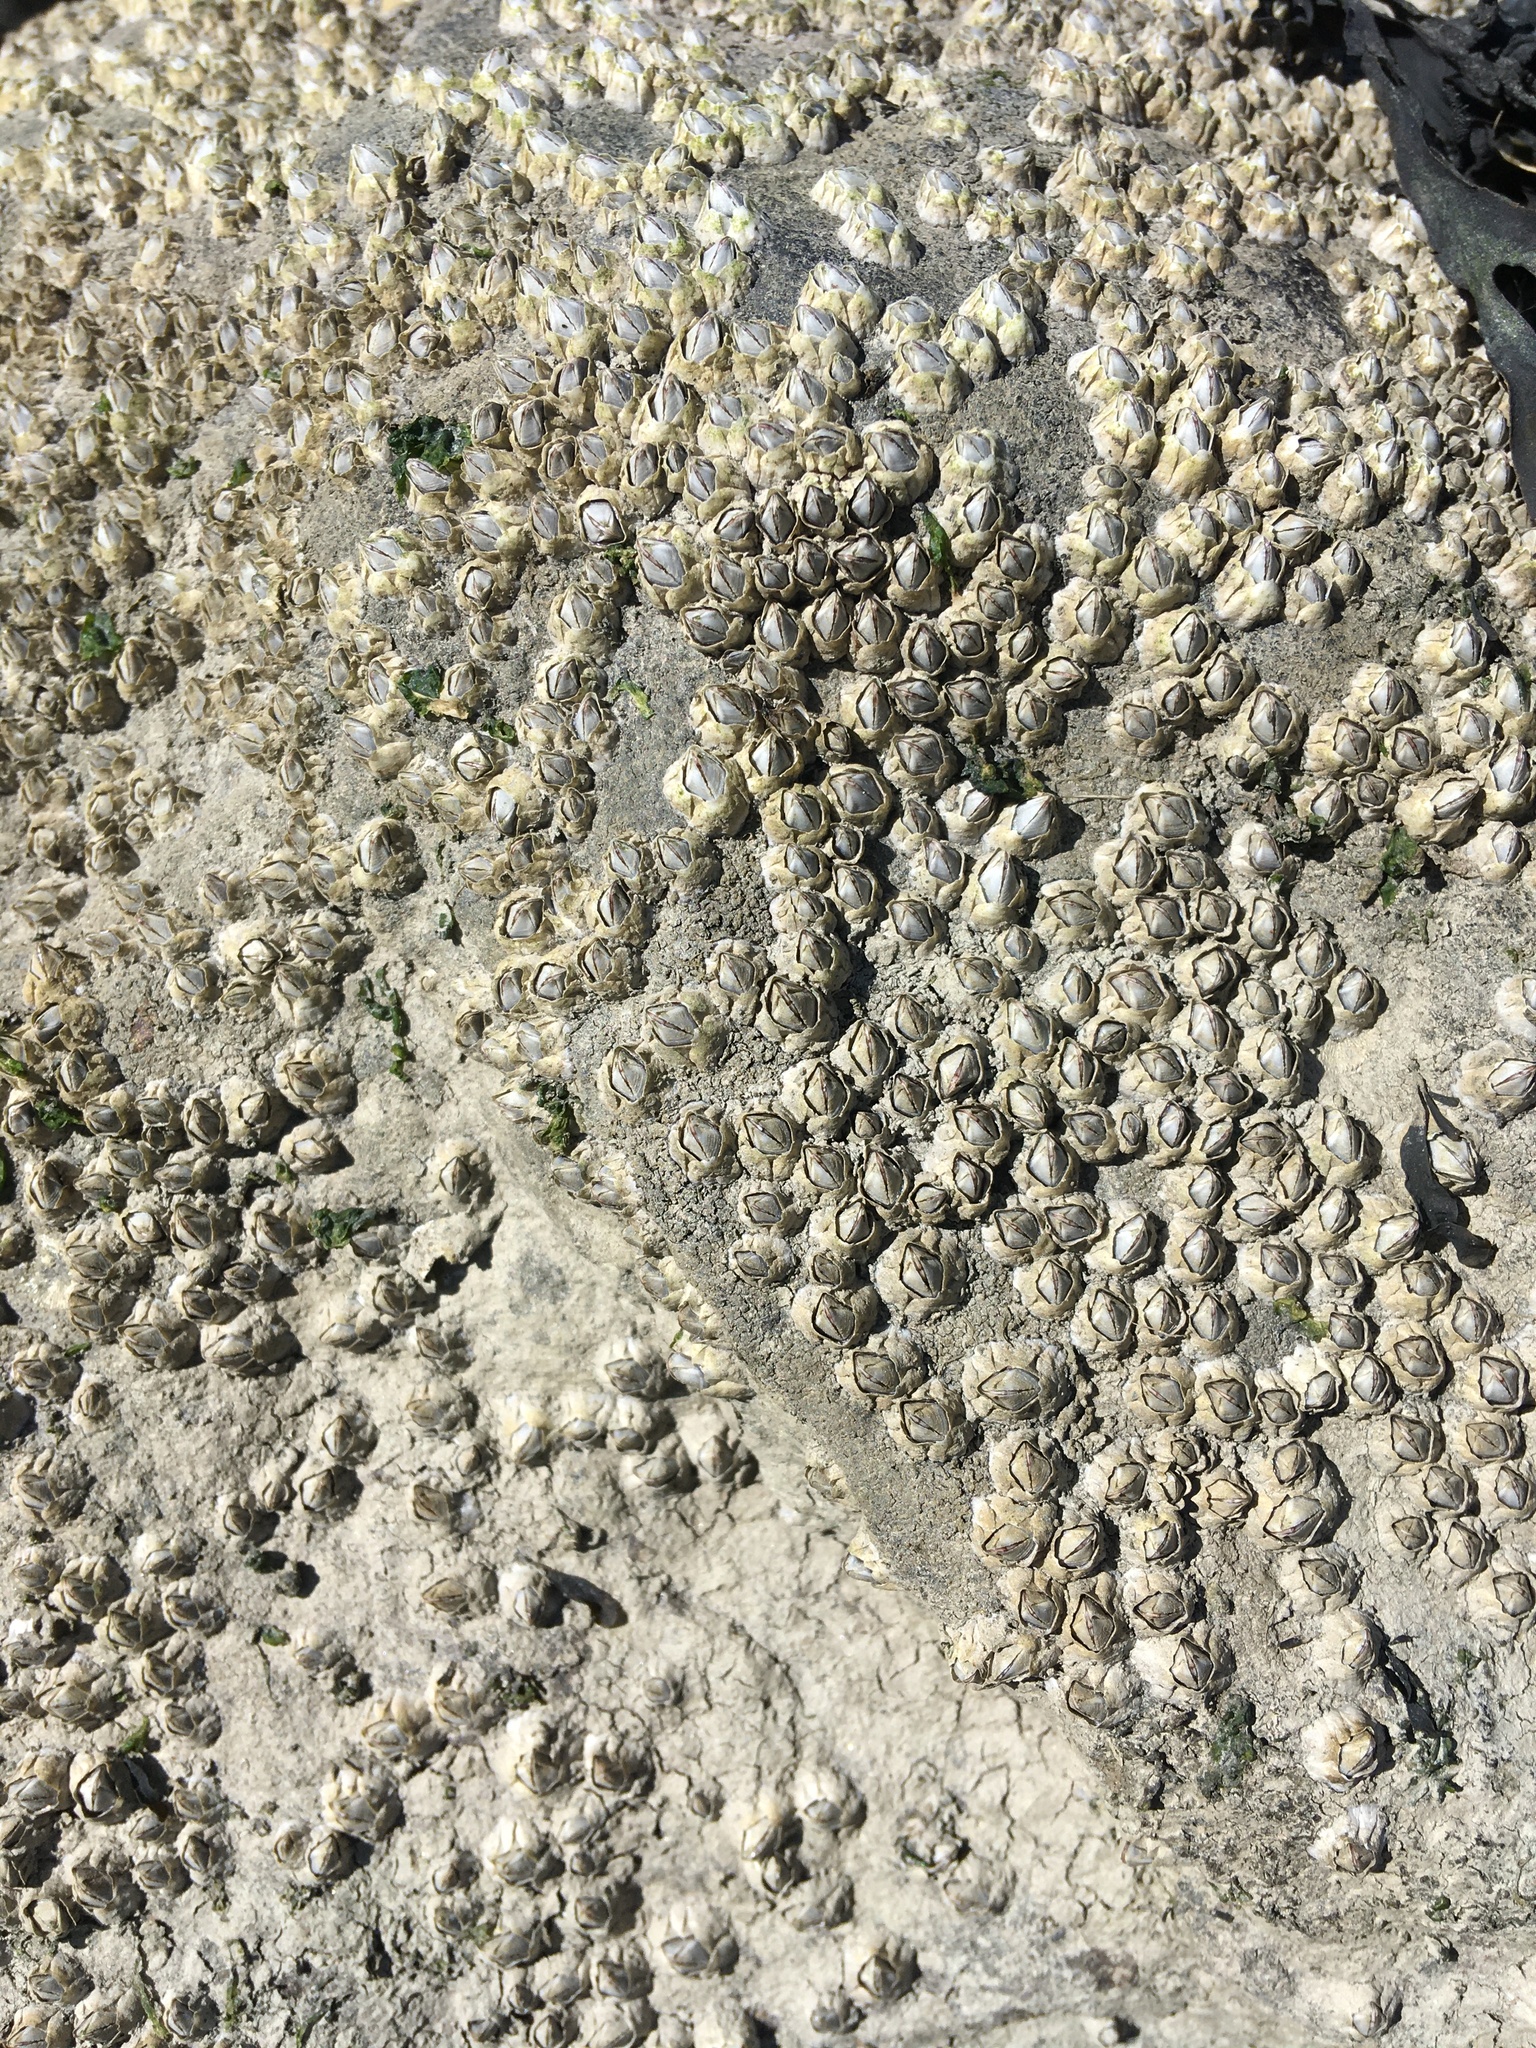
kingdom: Animalia
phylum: Arthropoda
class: Maxillopoda
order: Sessilia
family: Archaeobalanidae
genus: Semibalanus
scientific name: Semibalanus balanoides
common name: Acorn barnacle
